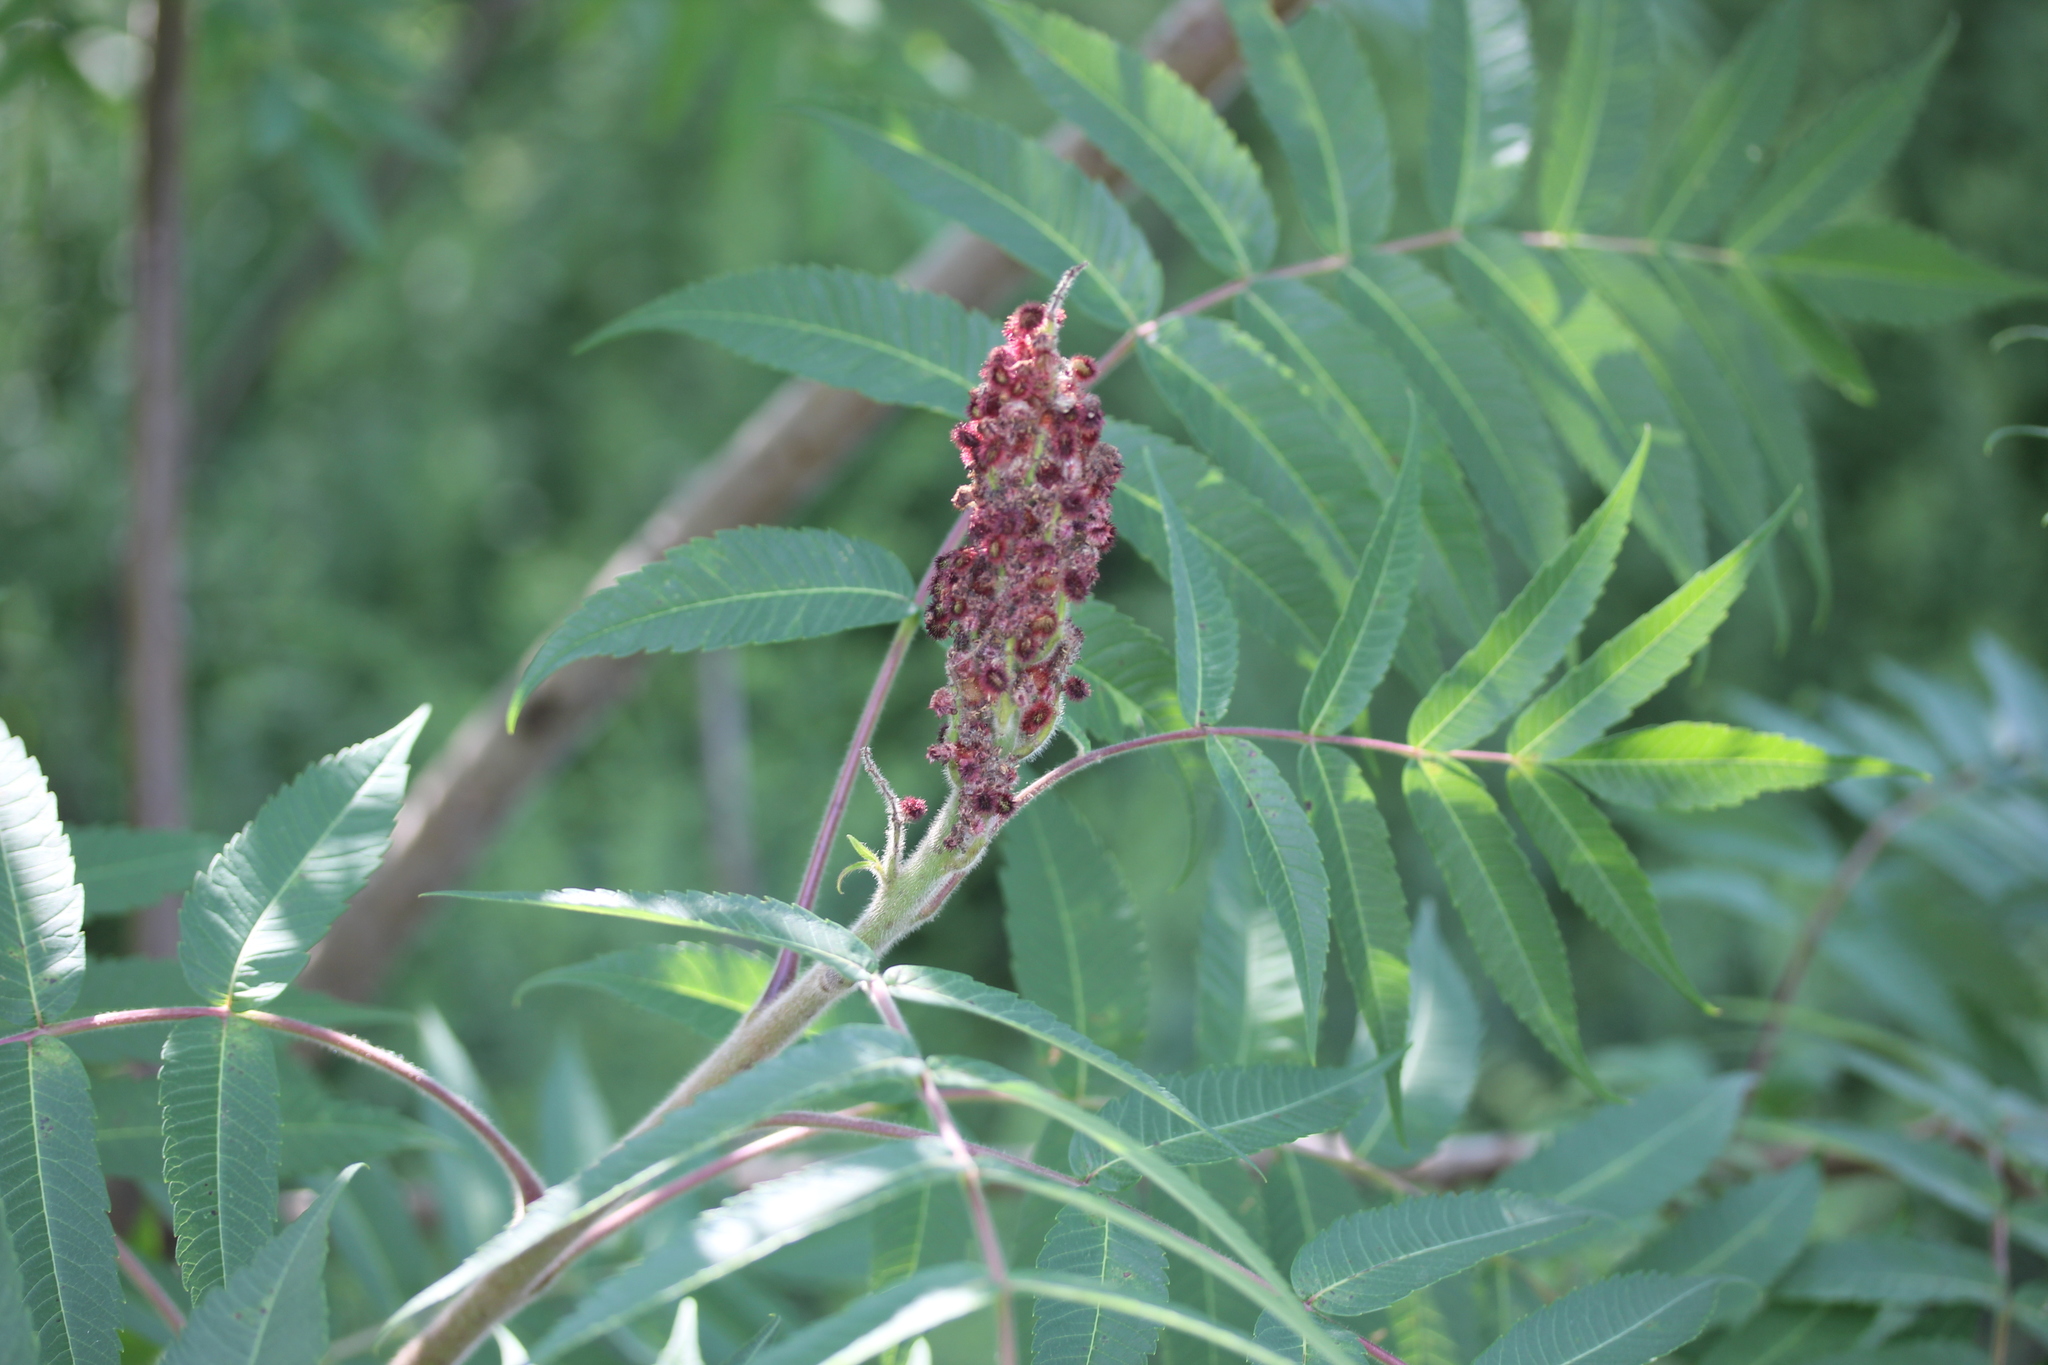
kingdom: Plantae
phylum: Tracheophyta
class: Magnoliopsida
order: Sapindales
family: Anacardiaceae
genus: Rhus
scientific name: Rhus typhina
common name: Staghorn sumac
